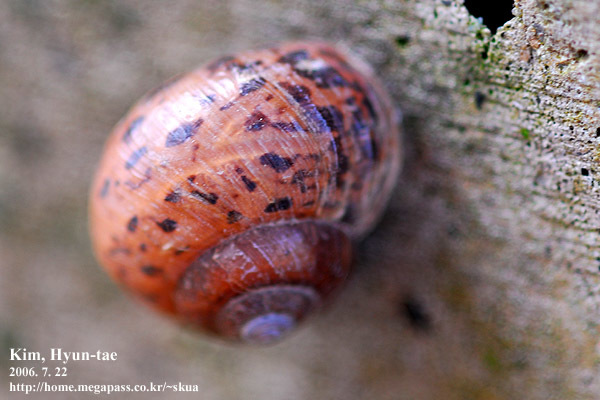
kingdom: Animalia
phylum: Mollusca
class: Gastropoda
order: Stylommatophora
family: Camaenidae
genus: Acusta
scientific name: Acusta redfieldi
